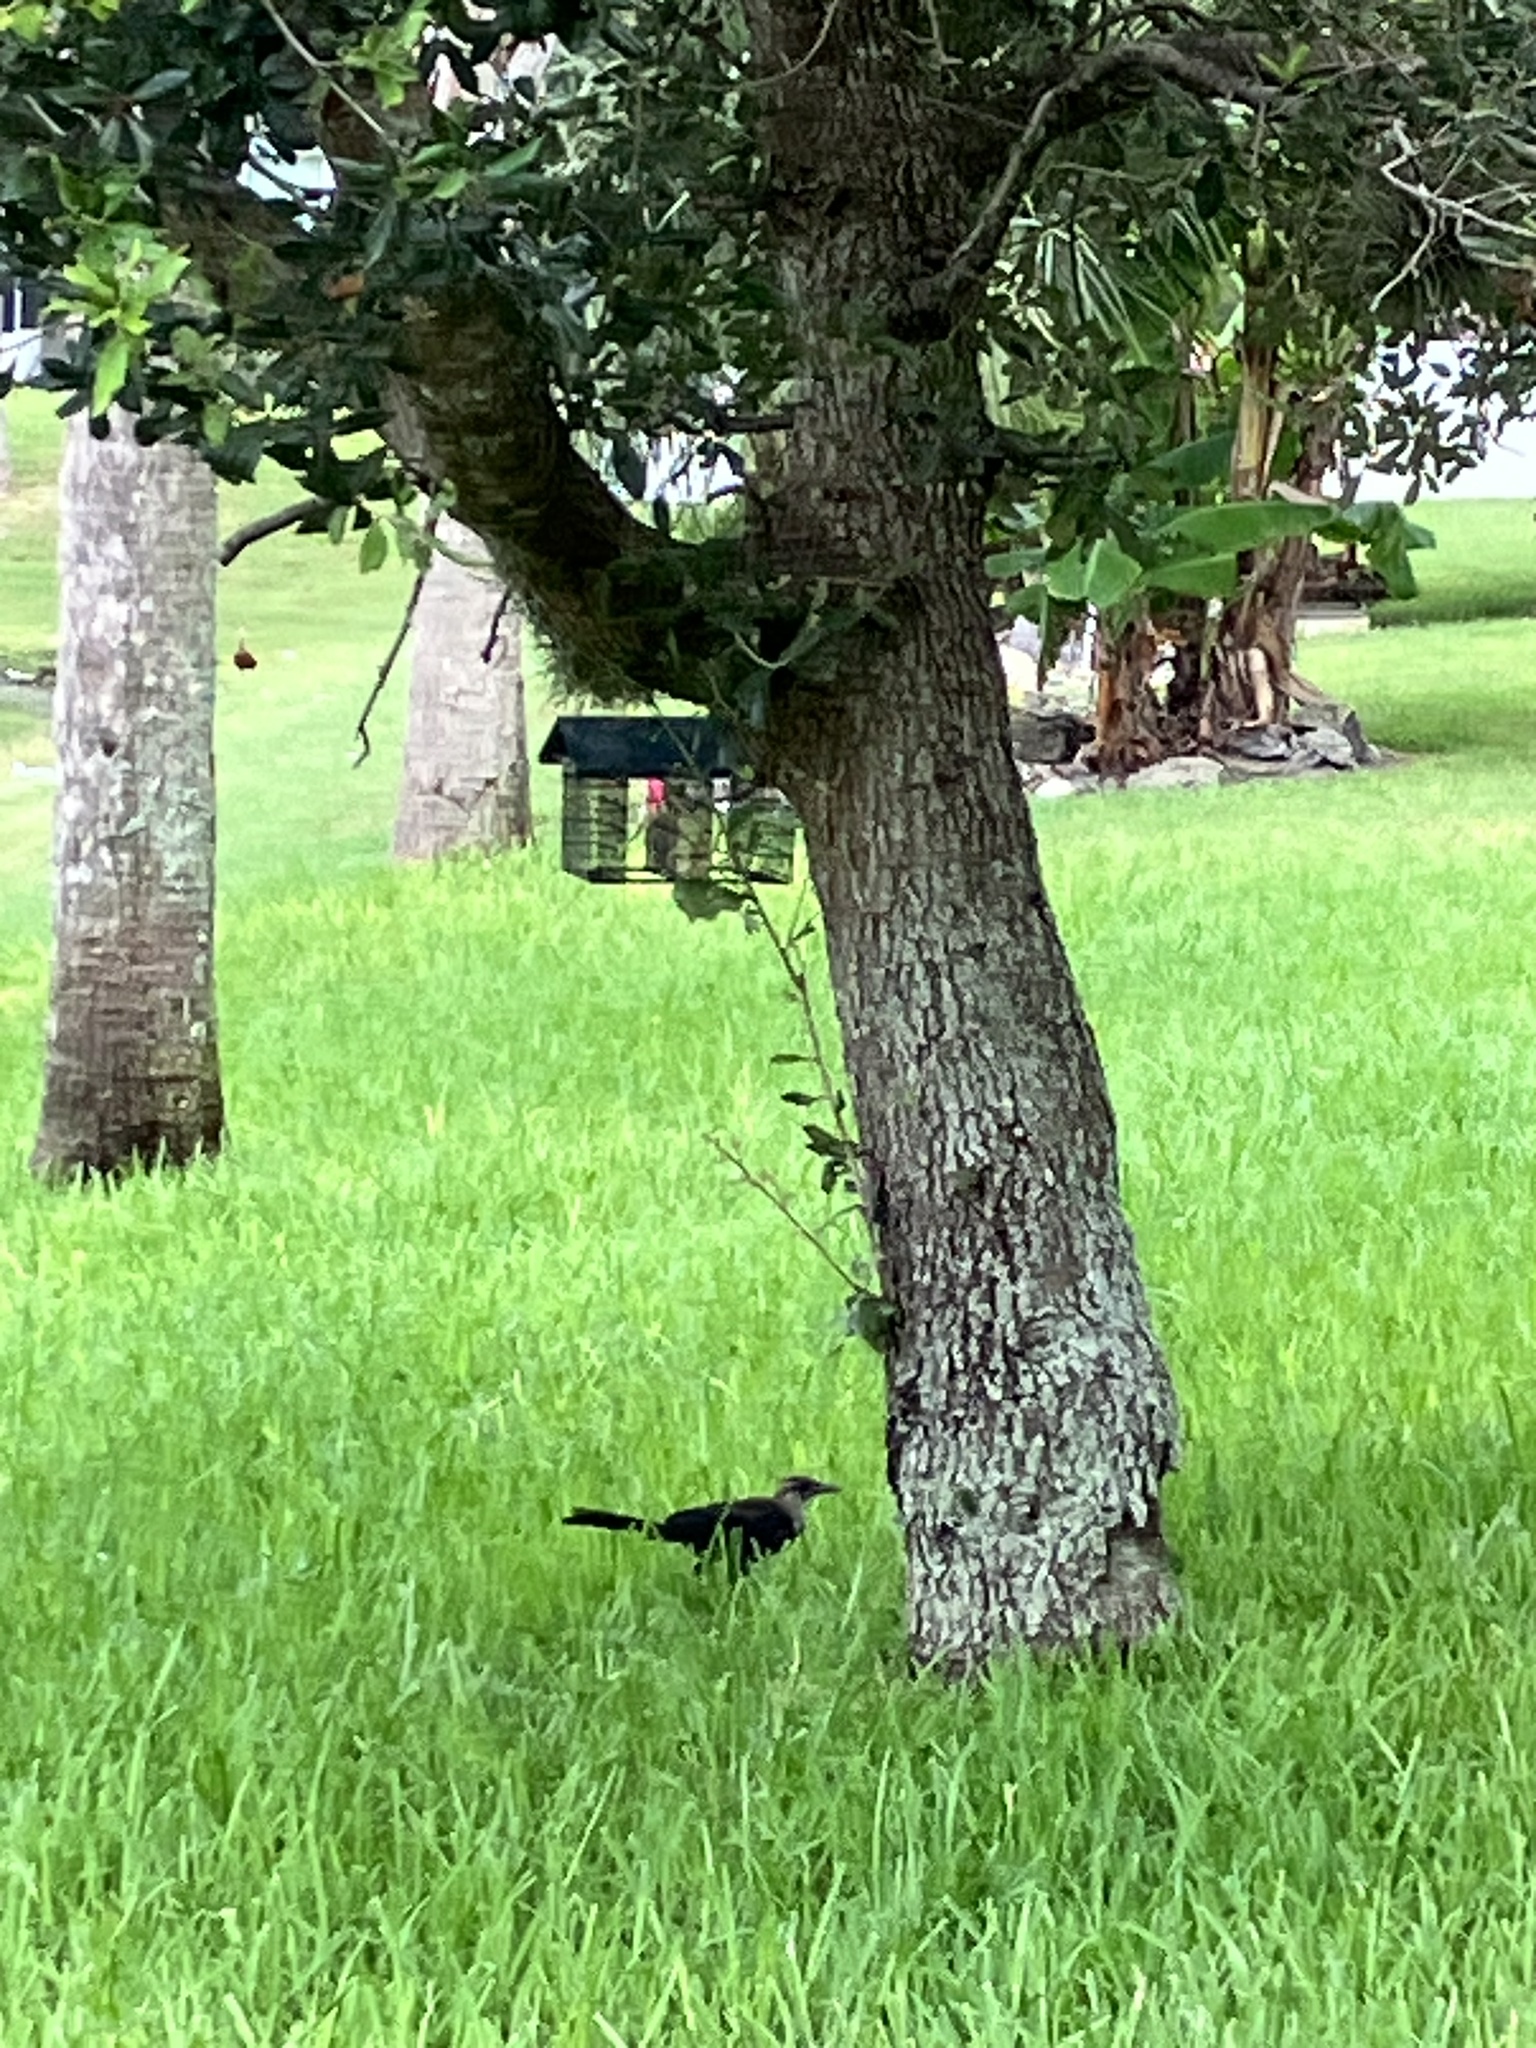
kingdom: Animalia
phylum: Chordata
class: Aves
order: Passeriformes
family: Icteridae
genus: Quiscalus
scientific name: Quiscalus major
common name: Boat-tailed grackle
